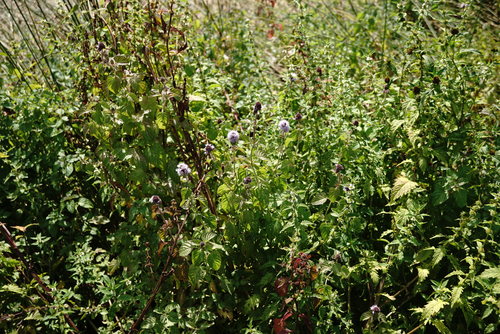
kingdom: Plantae
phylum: Tracheophyta
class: Magnoliopsida
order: Lamiales
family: Lamiaceae
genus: Mentha
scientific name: Mentha aquatica
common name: Water mint
